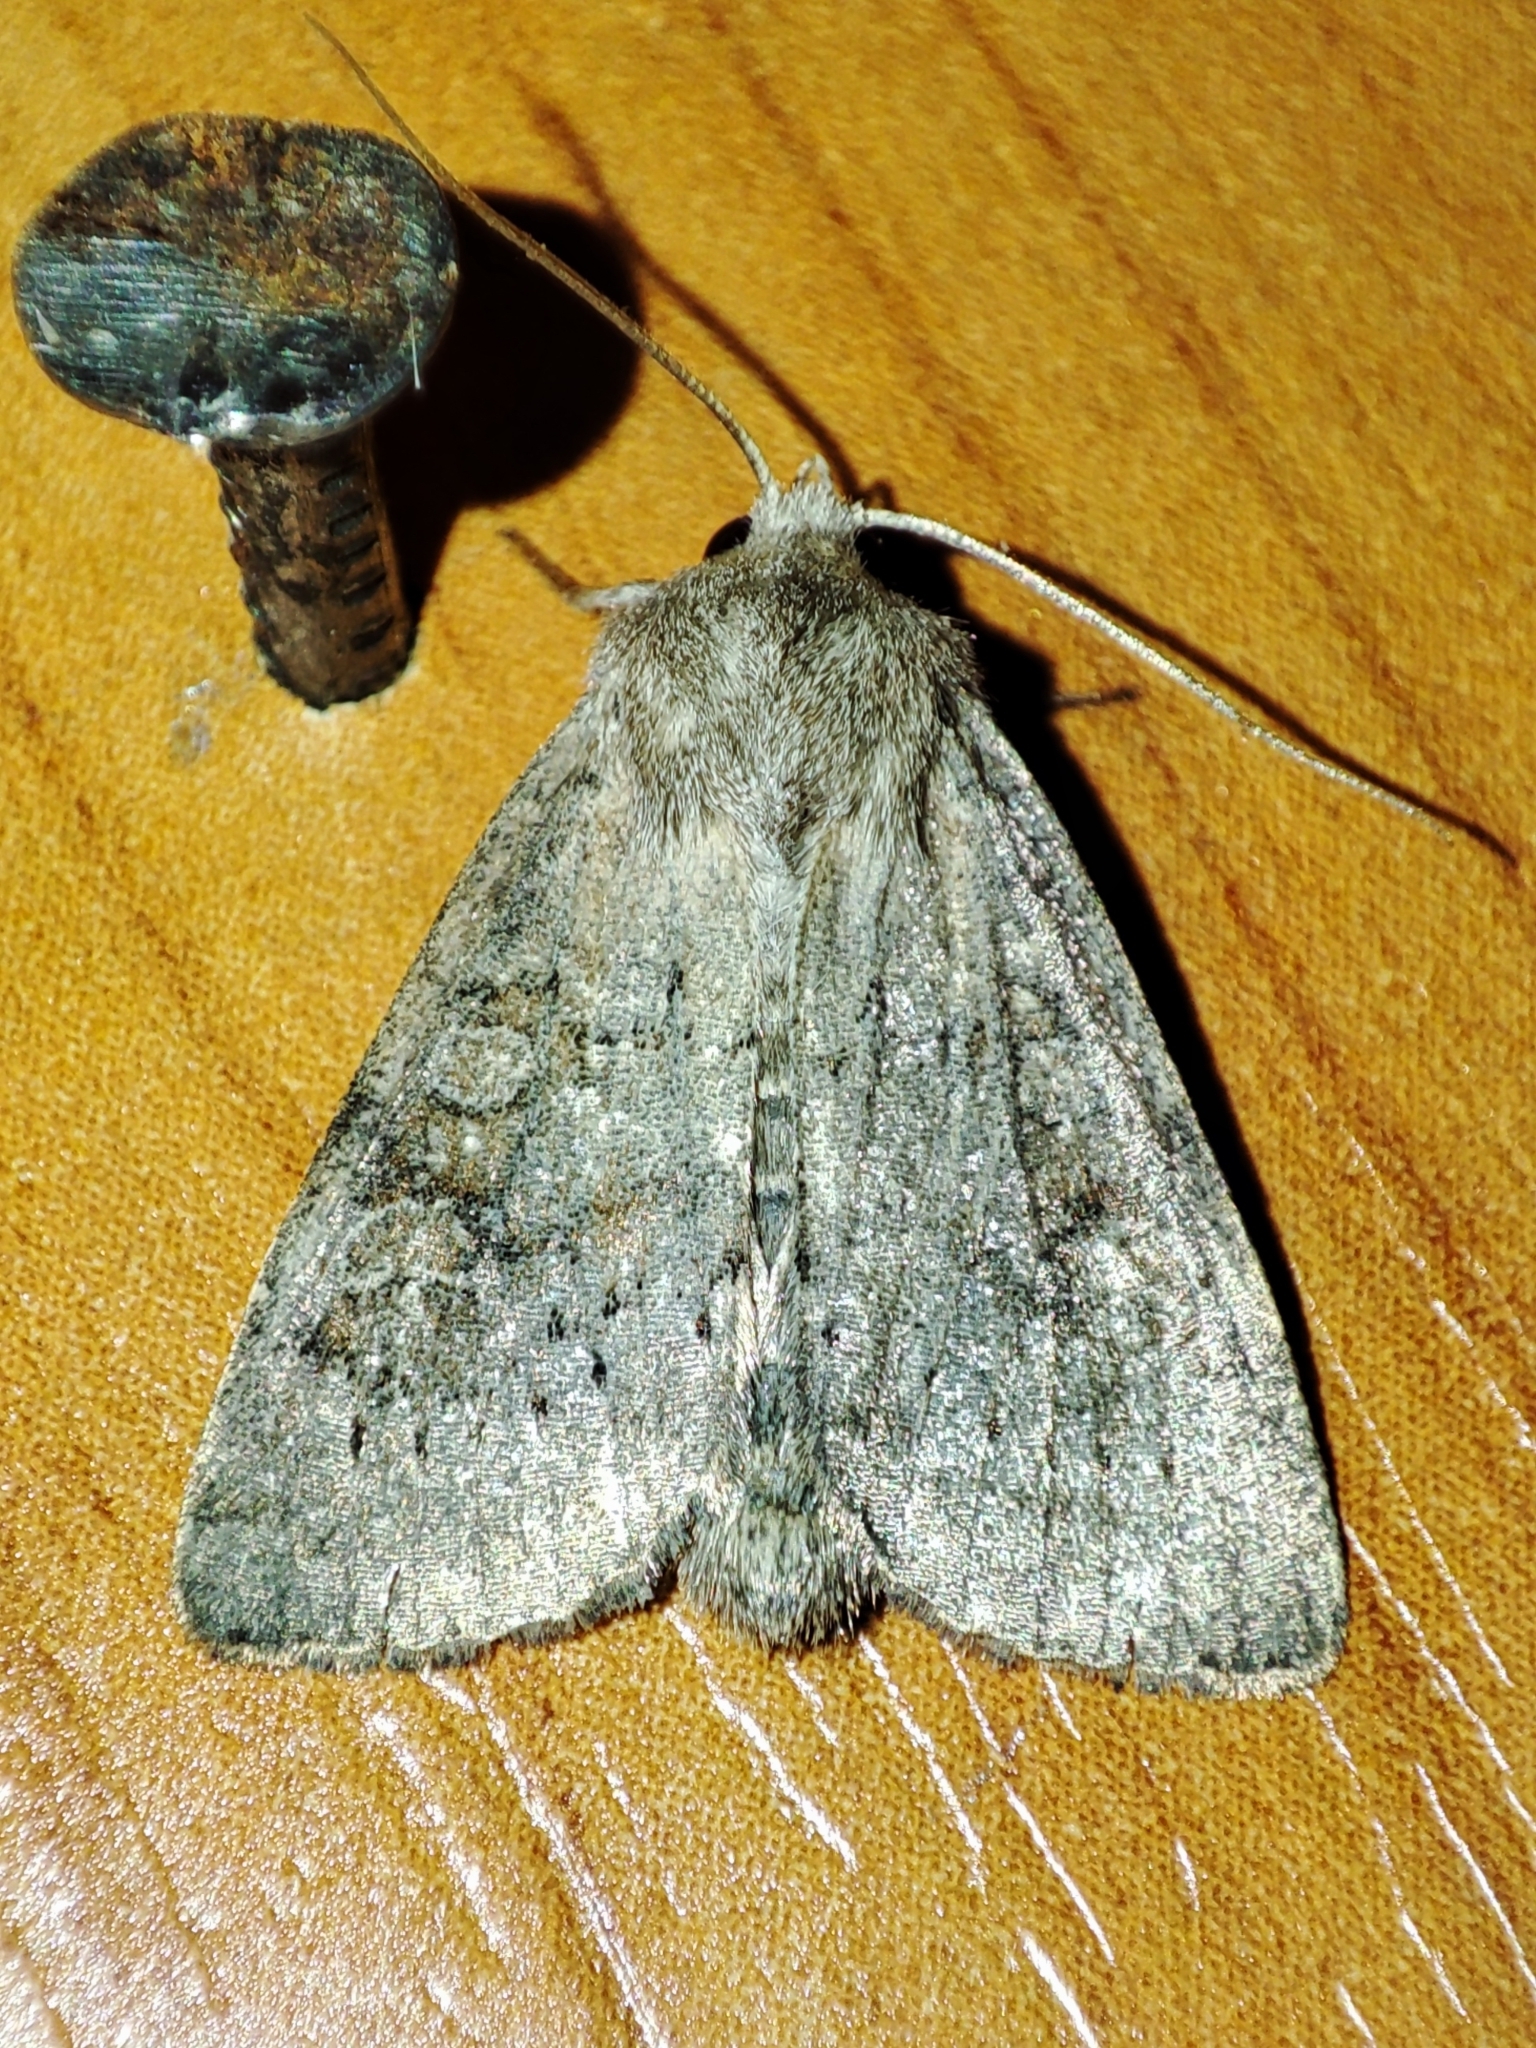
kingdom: Animalia
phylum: Arthropoda
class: Insecta
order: Lepidoptera
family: Noctuidae
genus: Parastichtis
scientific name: Parastichtis suspecta
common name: Suspected
